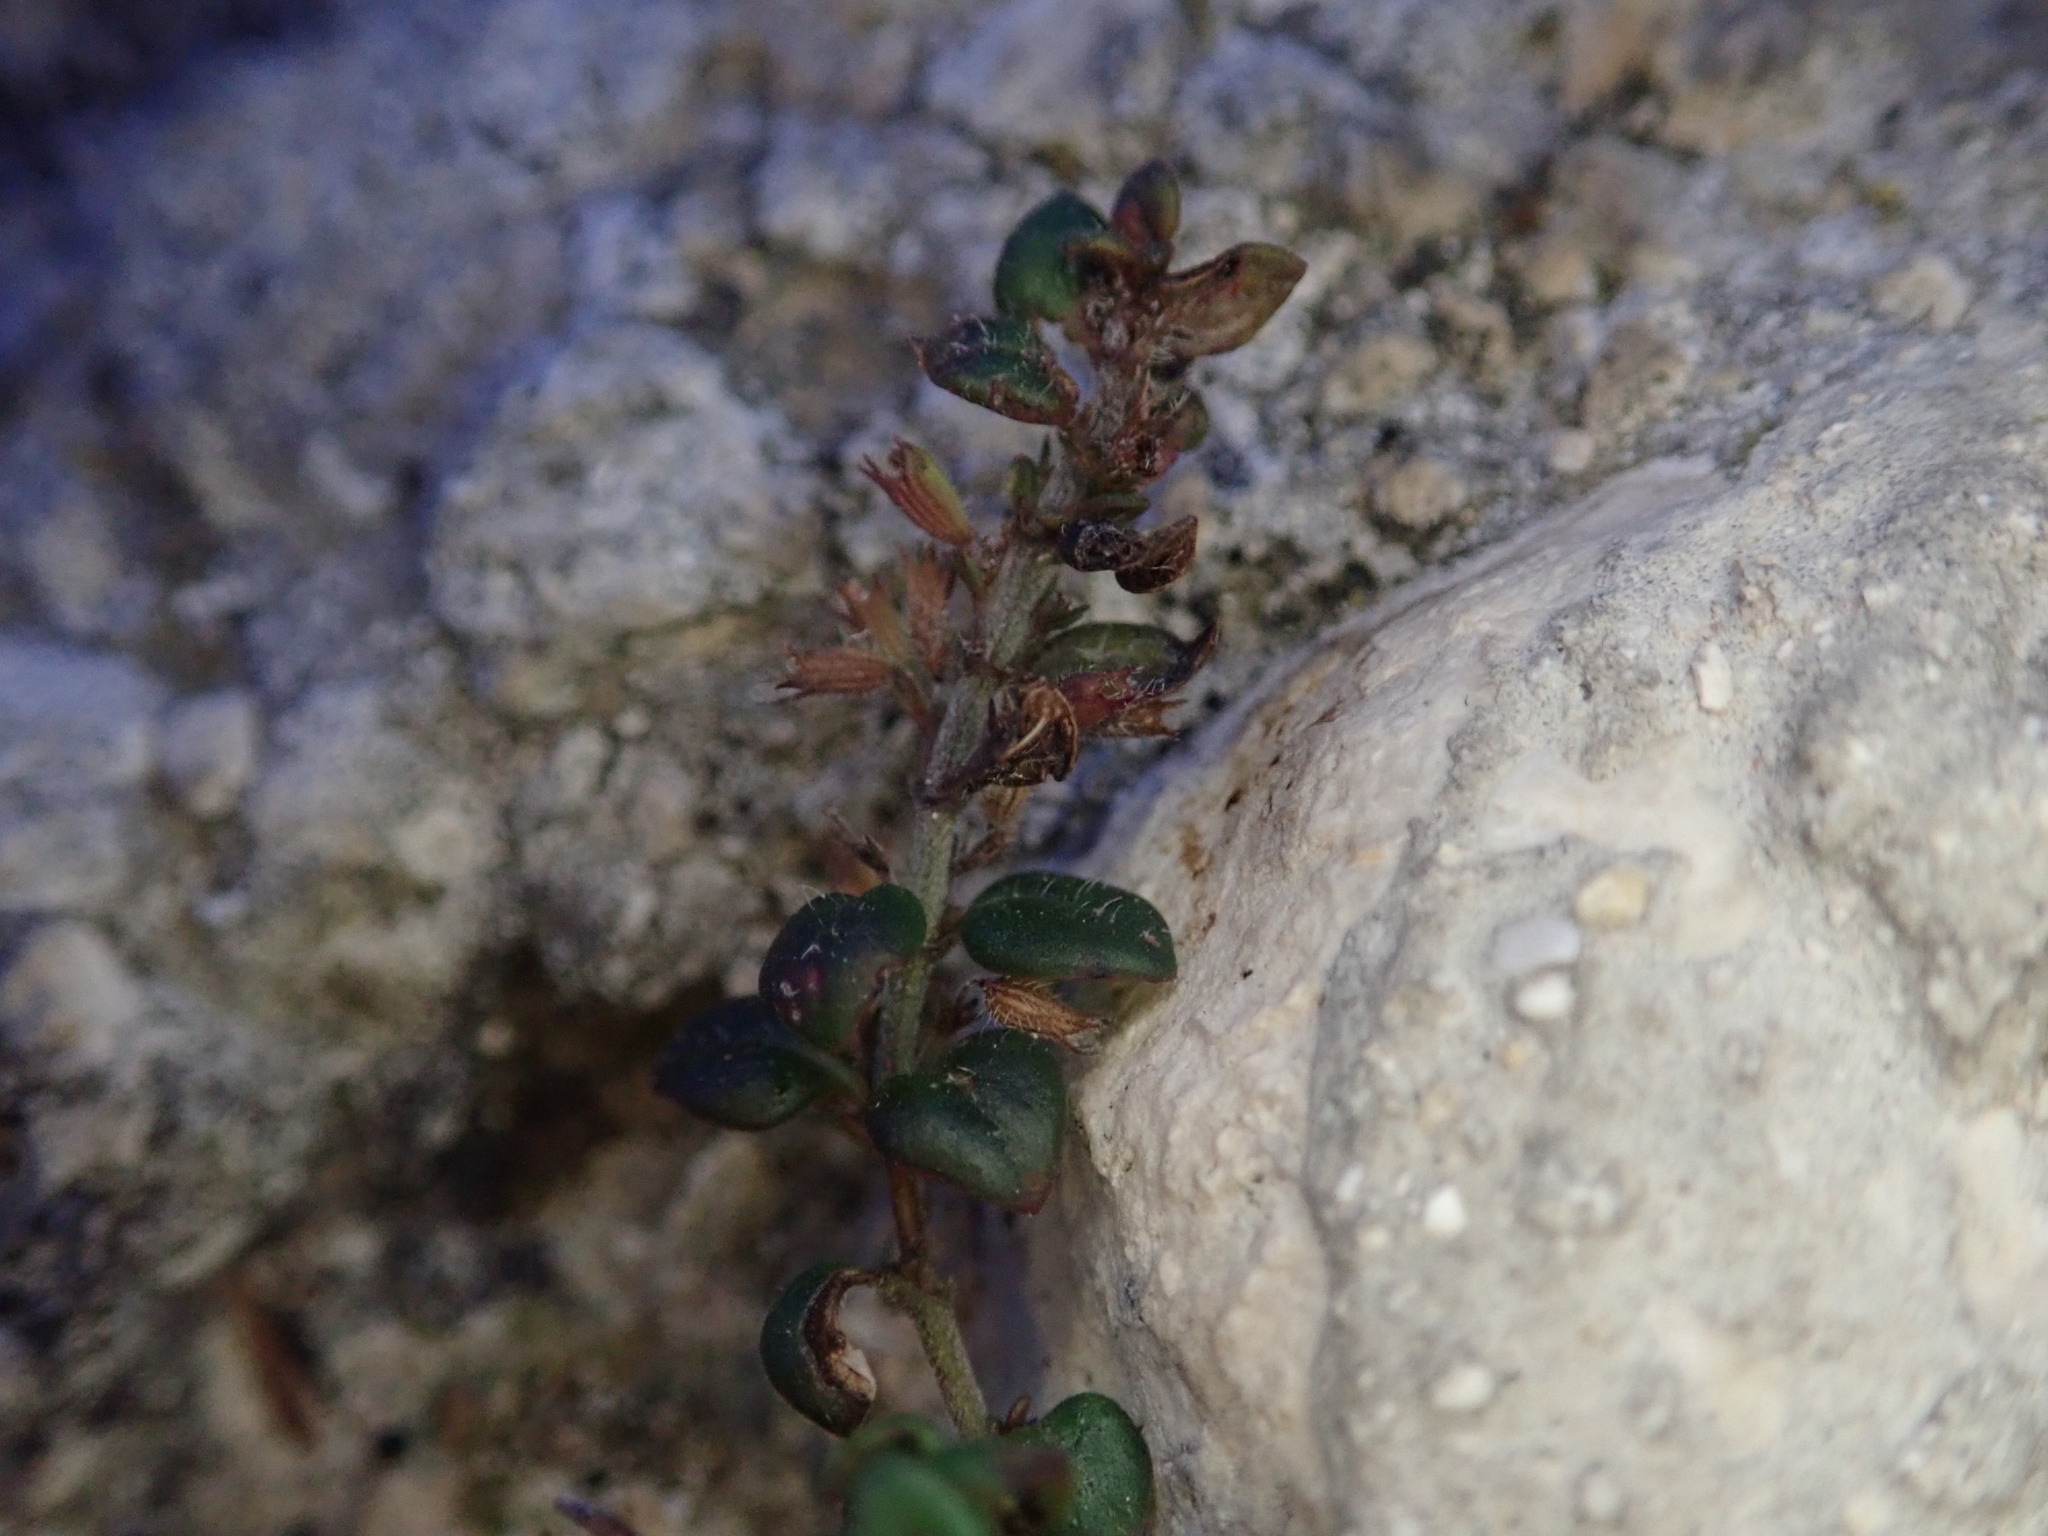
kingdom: Plantae
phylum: Tracheophyta
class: Magnoliopsida
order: Lamiales
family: Lamiaceae
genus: Micromeria
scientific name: Micromeria microphylla
